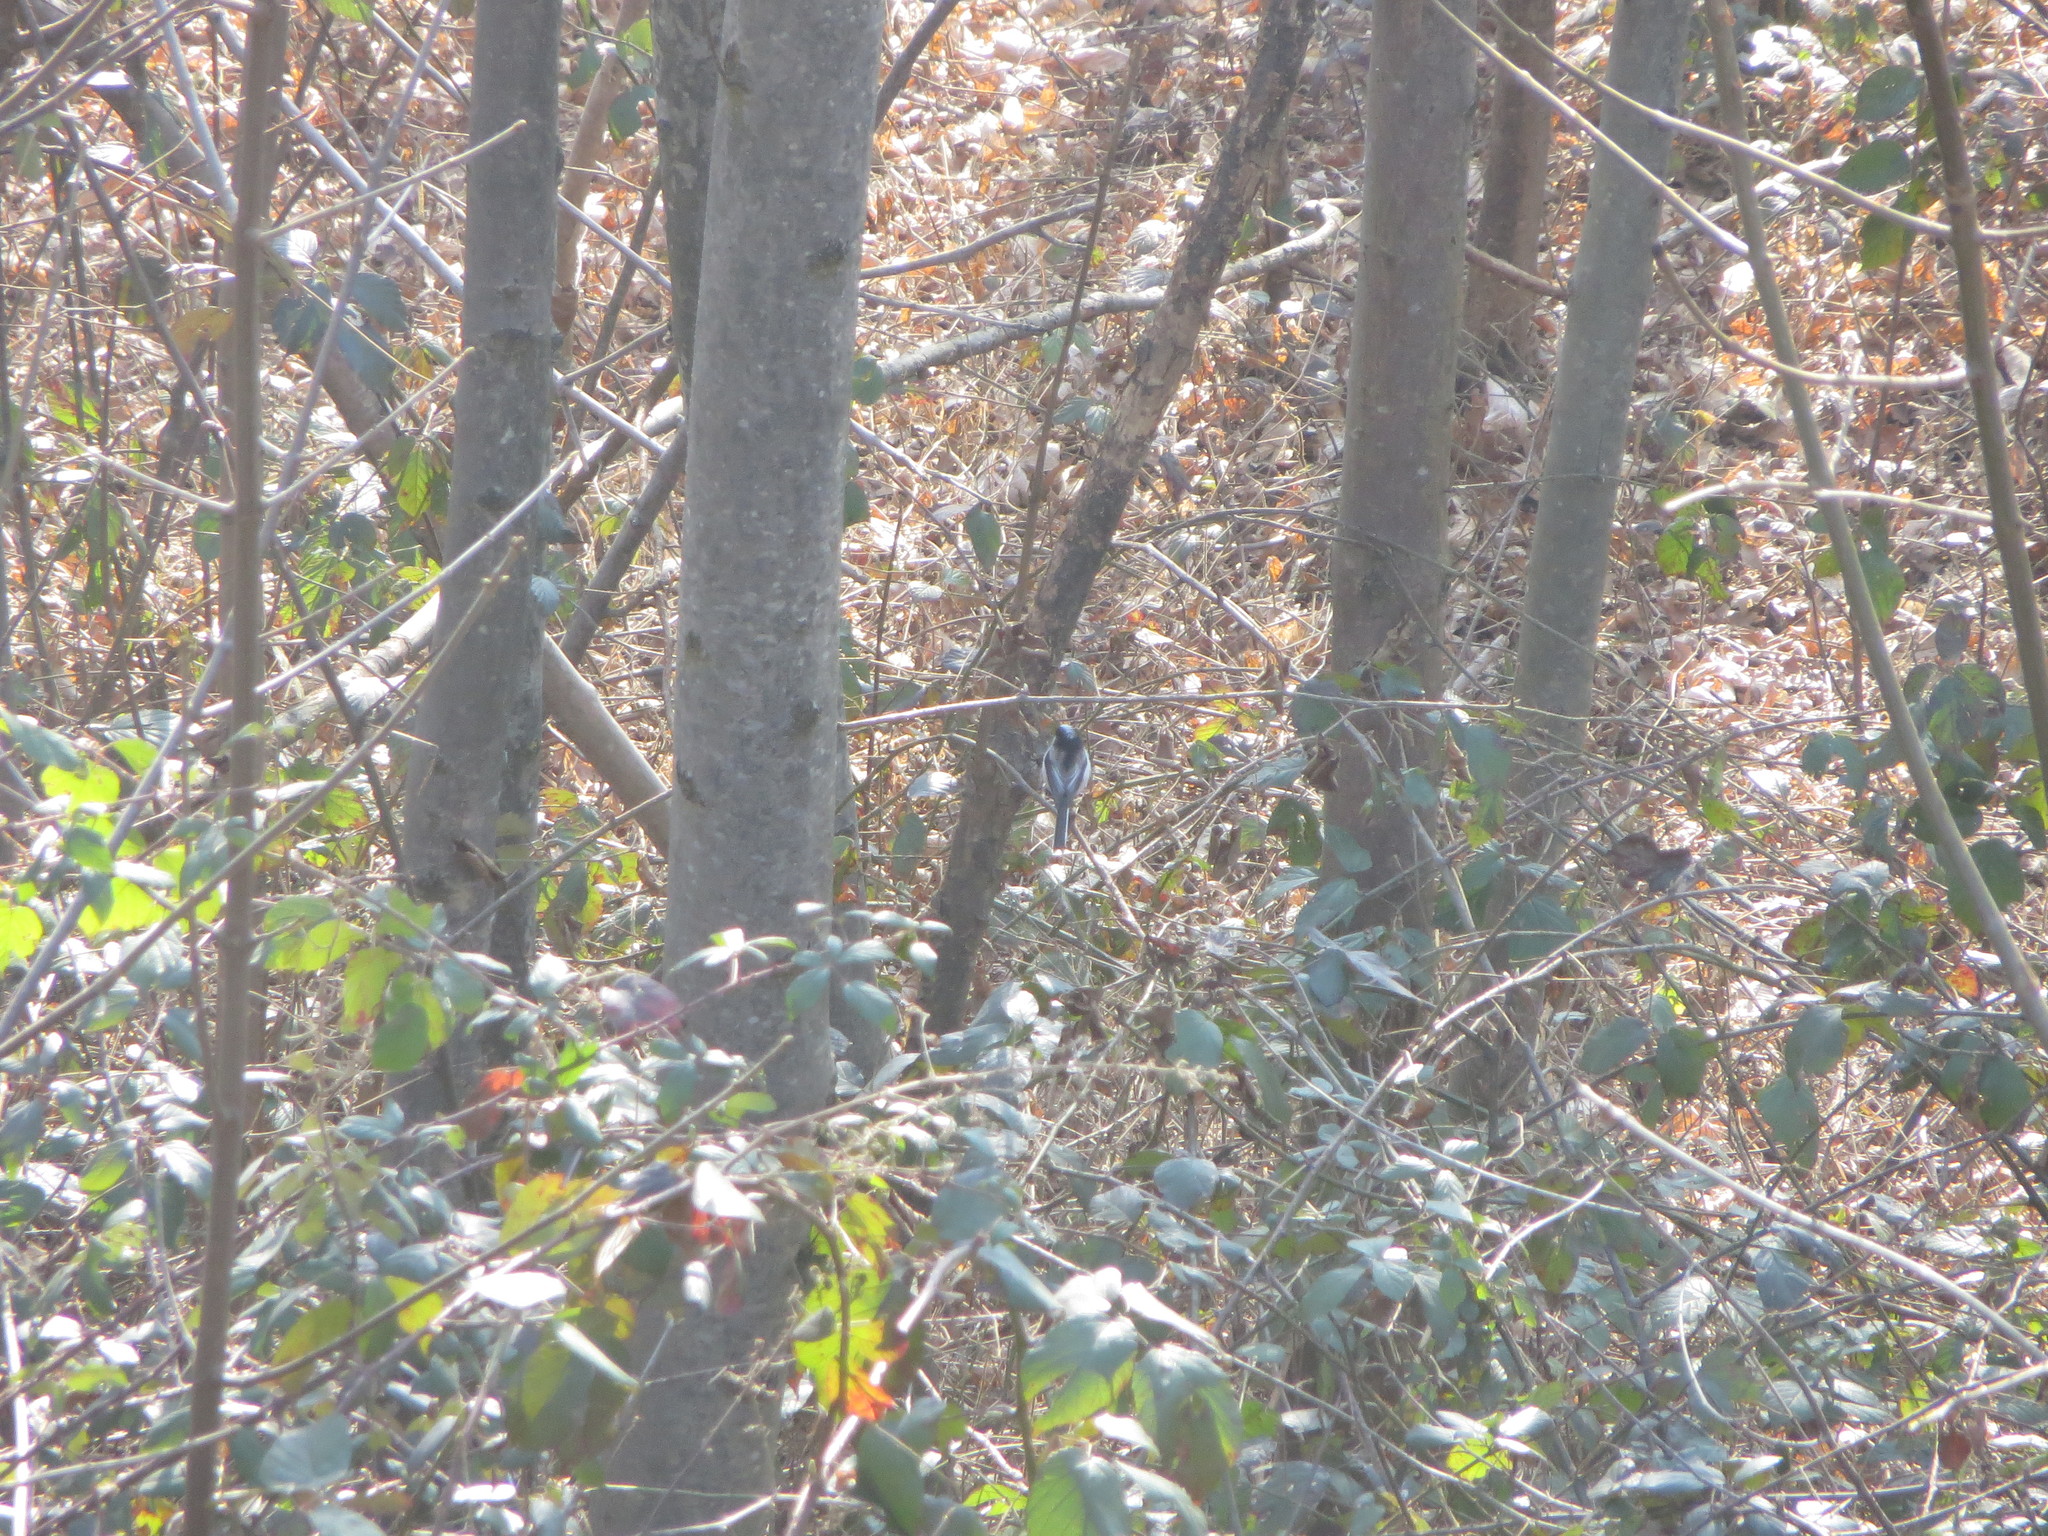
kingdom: Animalia
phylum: Chordata
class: Aves
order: Passeriformes
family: Aegithalidae
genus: Aegithalos
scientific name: Aegithalos caudatus
